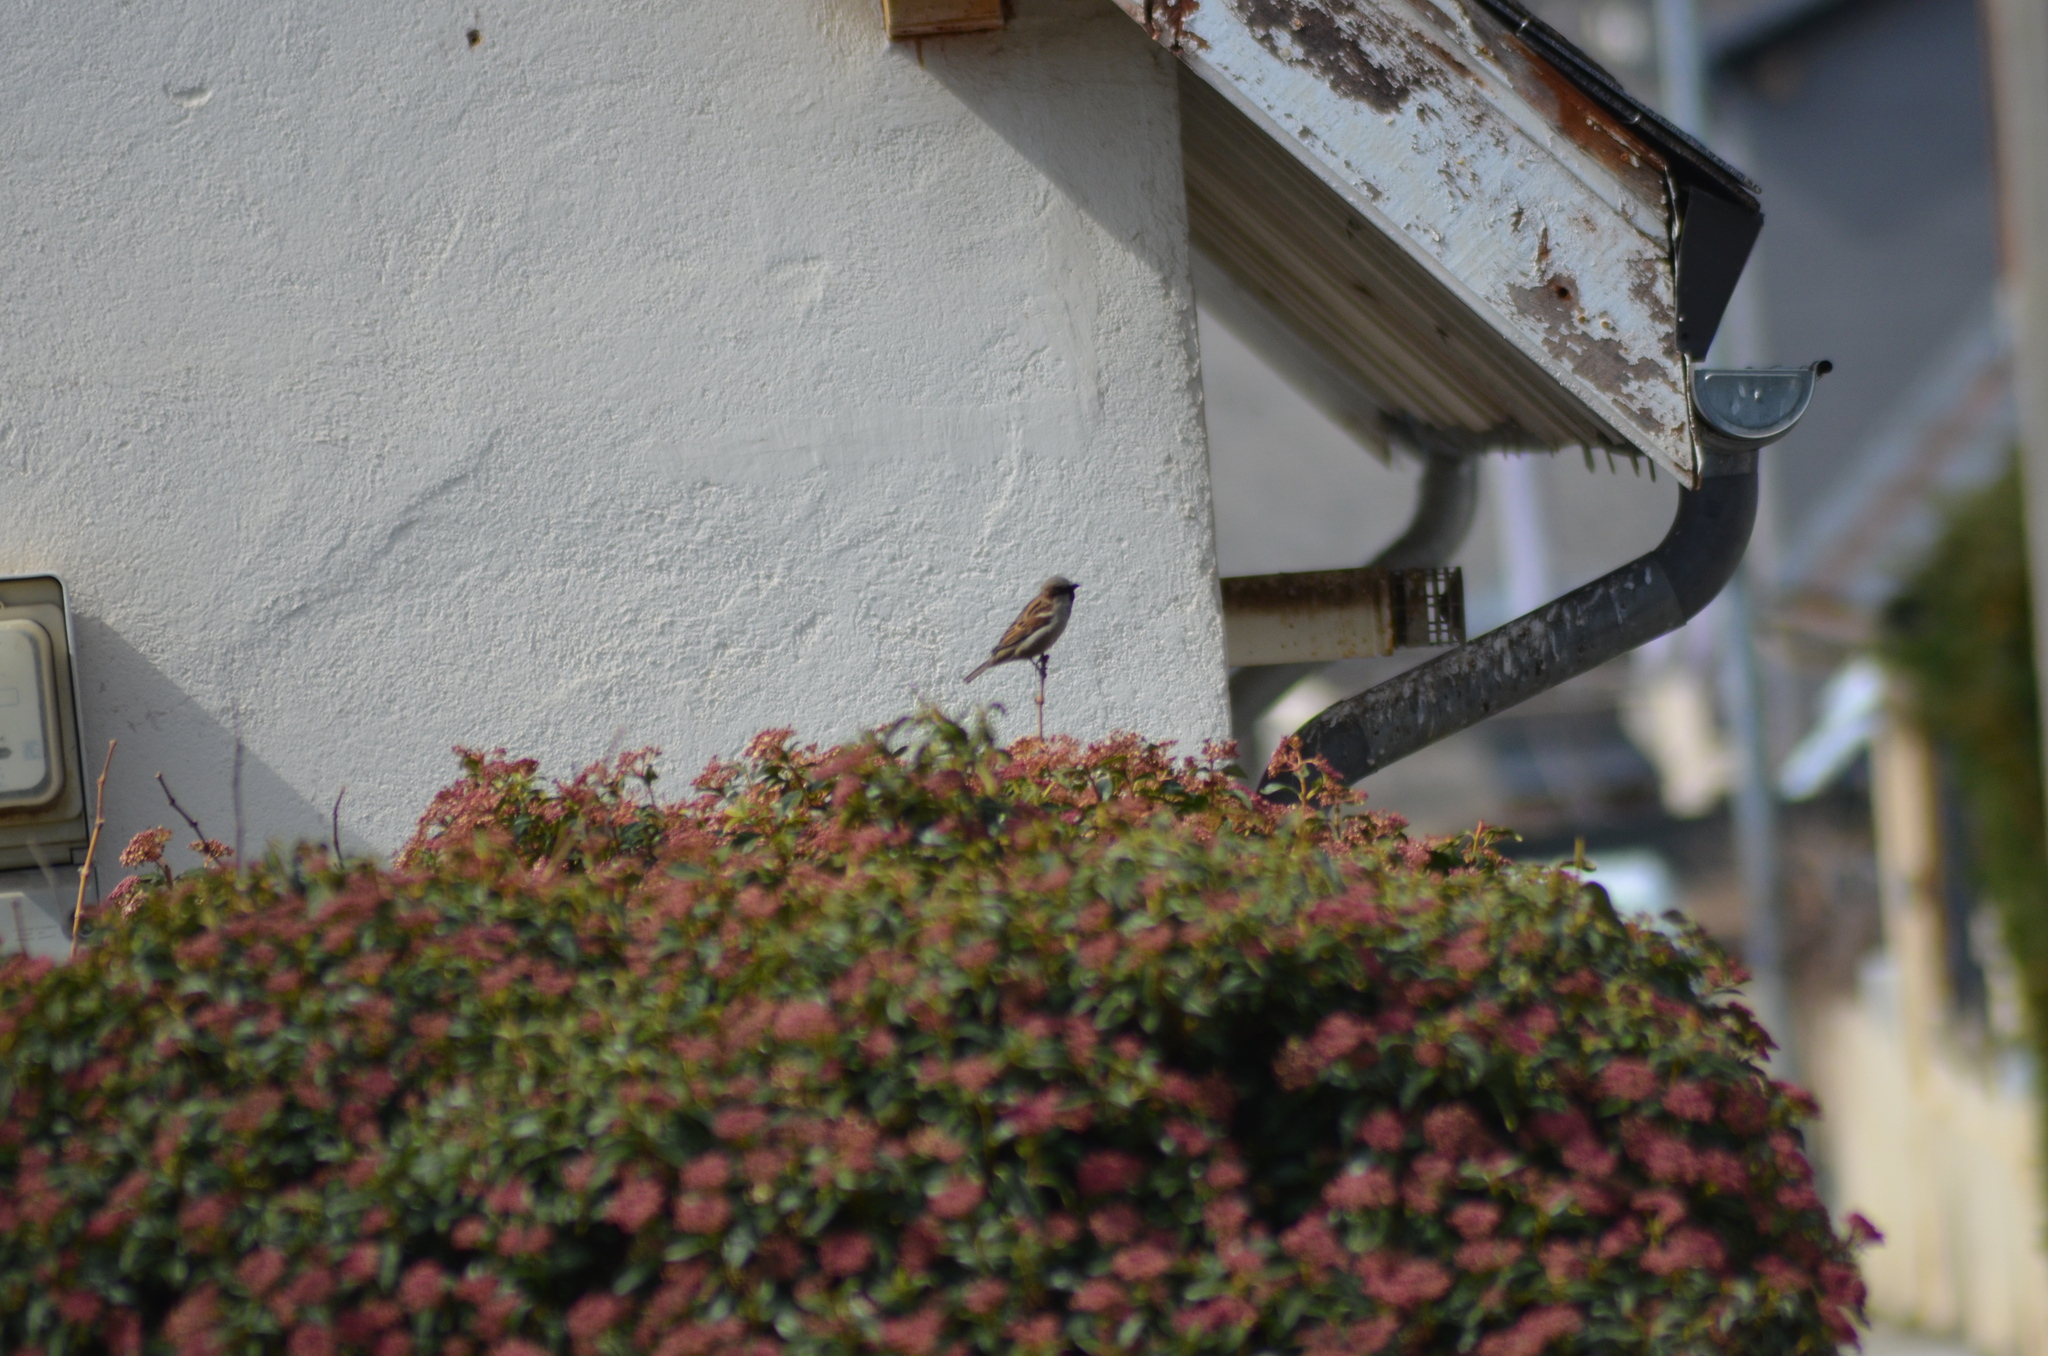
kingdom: Animalia
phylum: Chordata
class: Aves
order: Passeriformes
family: Passeridae
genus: Passer
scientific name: Passer domesticus
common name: House sparrow
